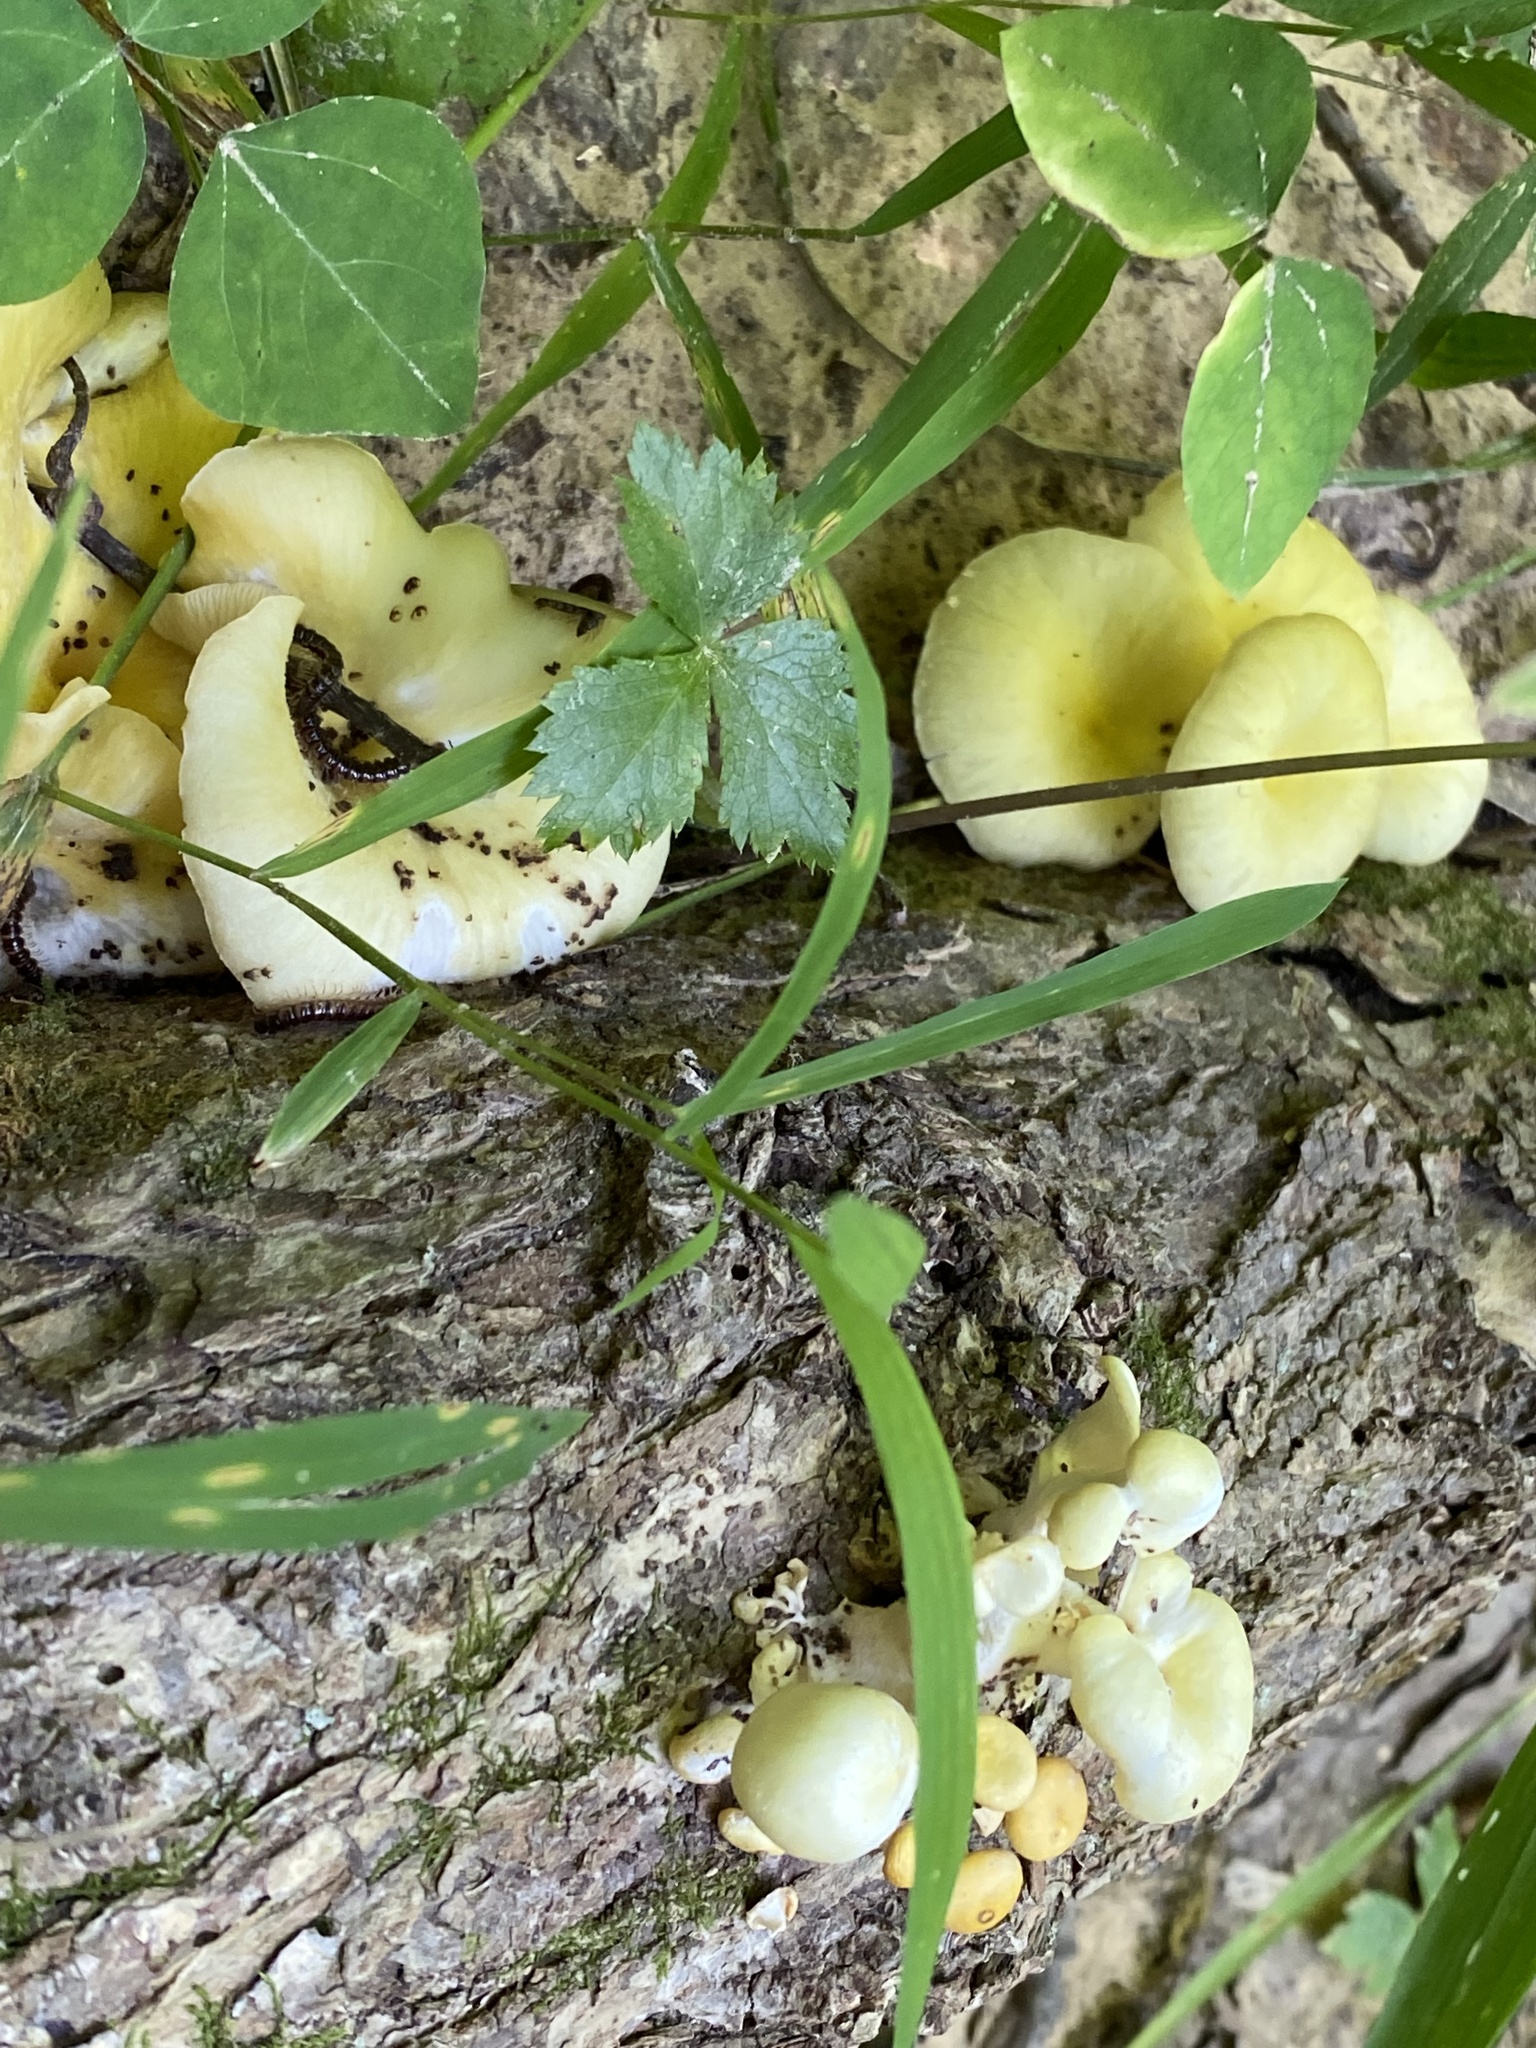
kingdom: Fungi
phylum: Basidiomycota
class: Agaricomycetes
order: Agaricales
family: Pleurotaceae
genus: Pleurotus
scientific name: Pleurotus citrinopileatus
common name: Golden oyster mushroom
